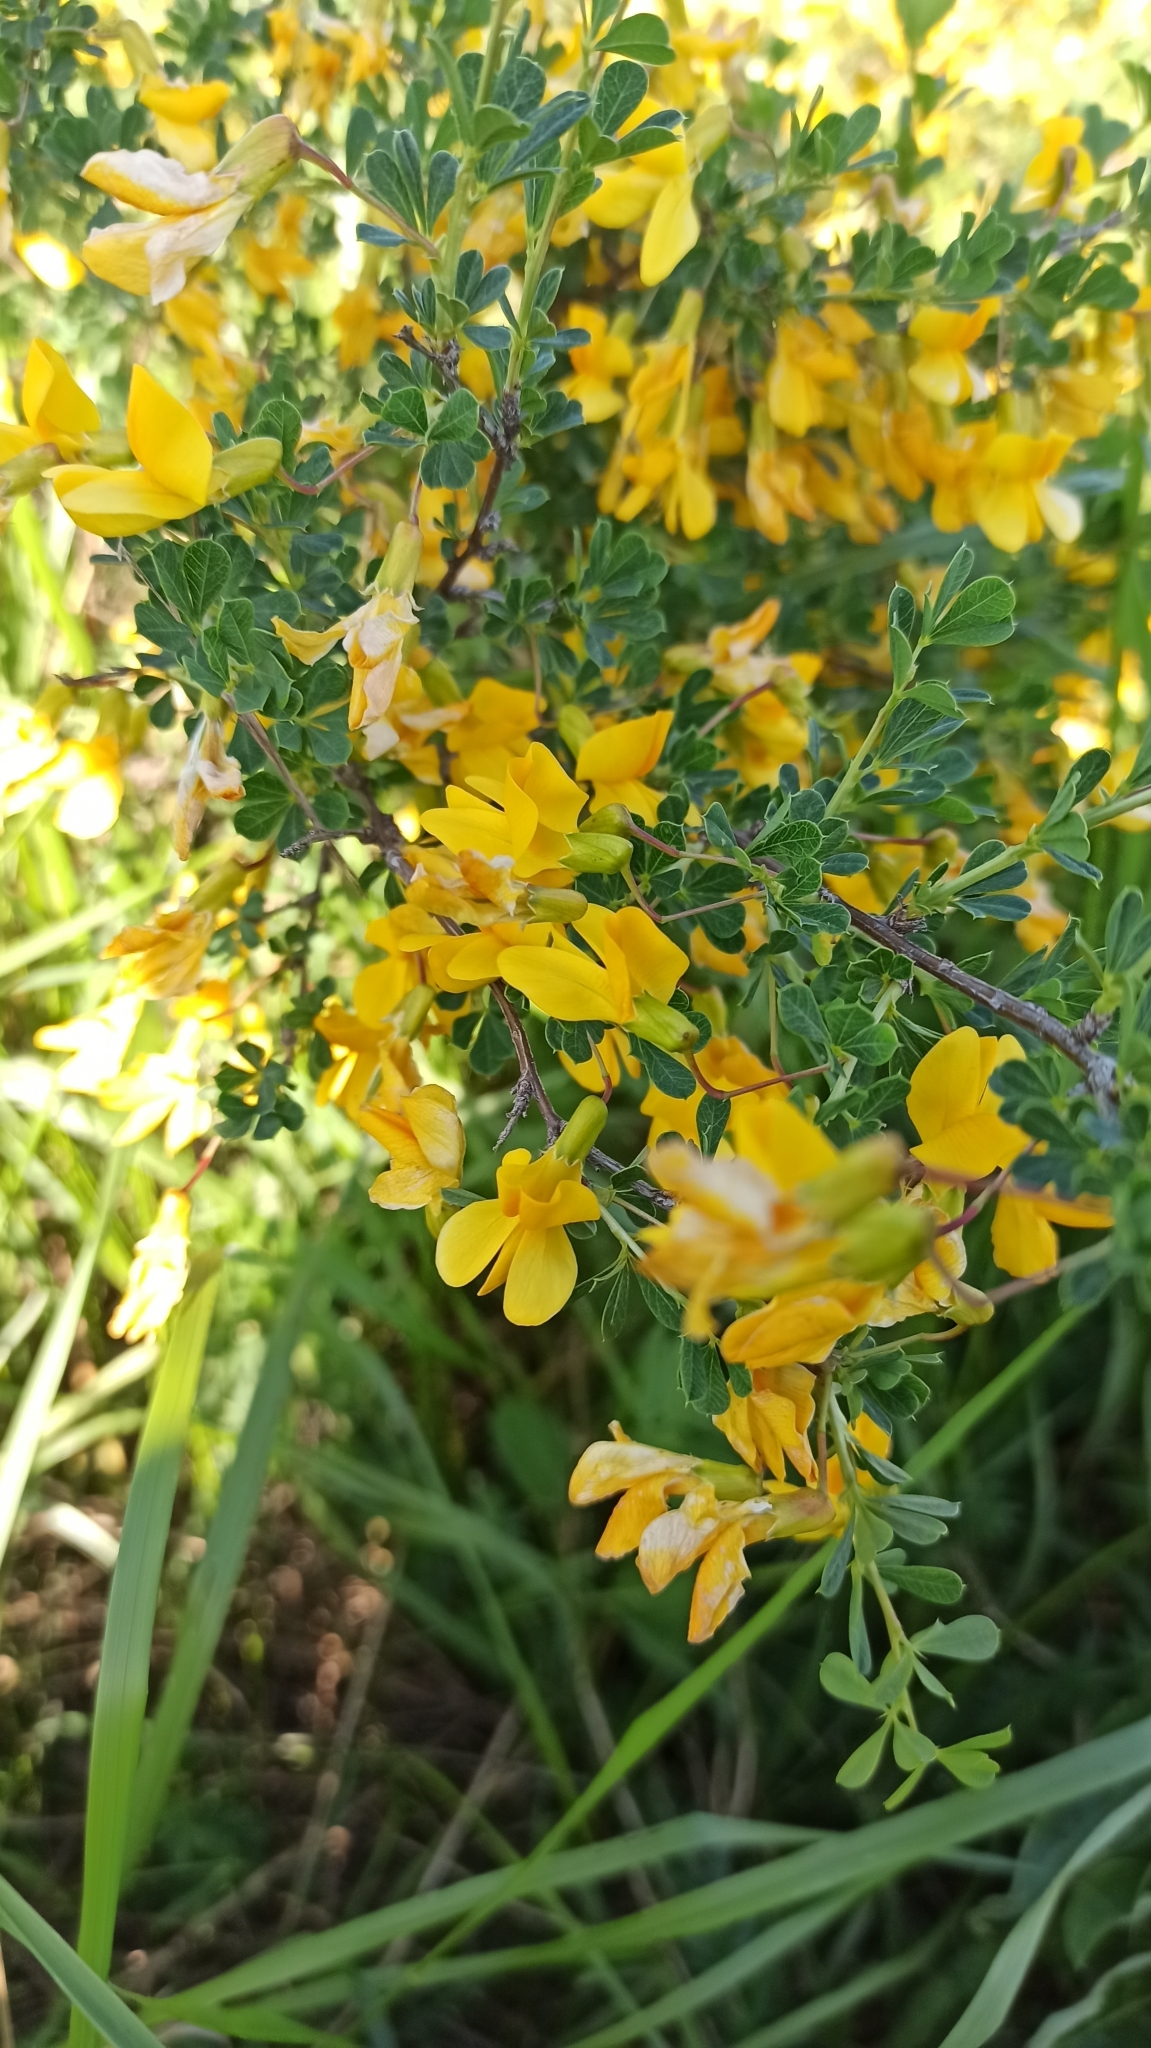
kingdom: Plantae
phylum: Tracheophyta
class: Magnoliopsida
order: Fabales
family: Fabaceae
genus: Caragana
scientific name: Caragana frutex
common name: Russian peashrub
